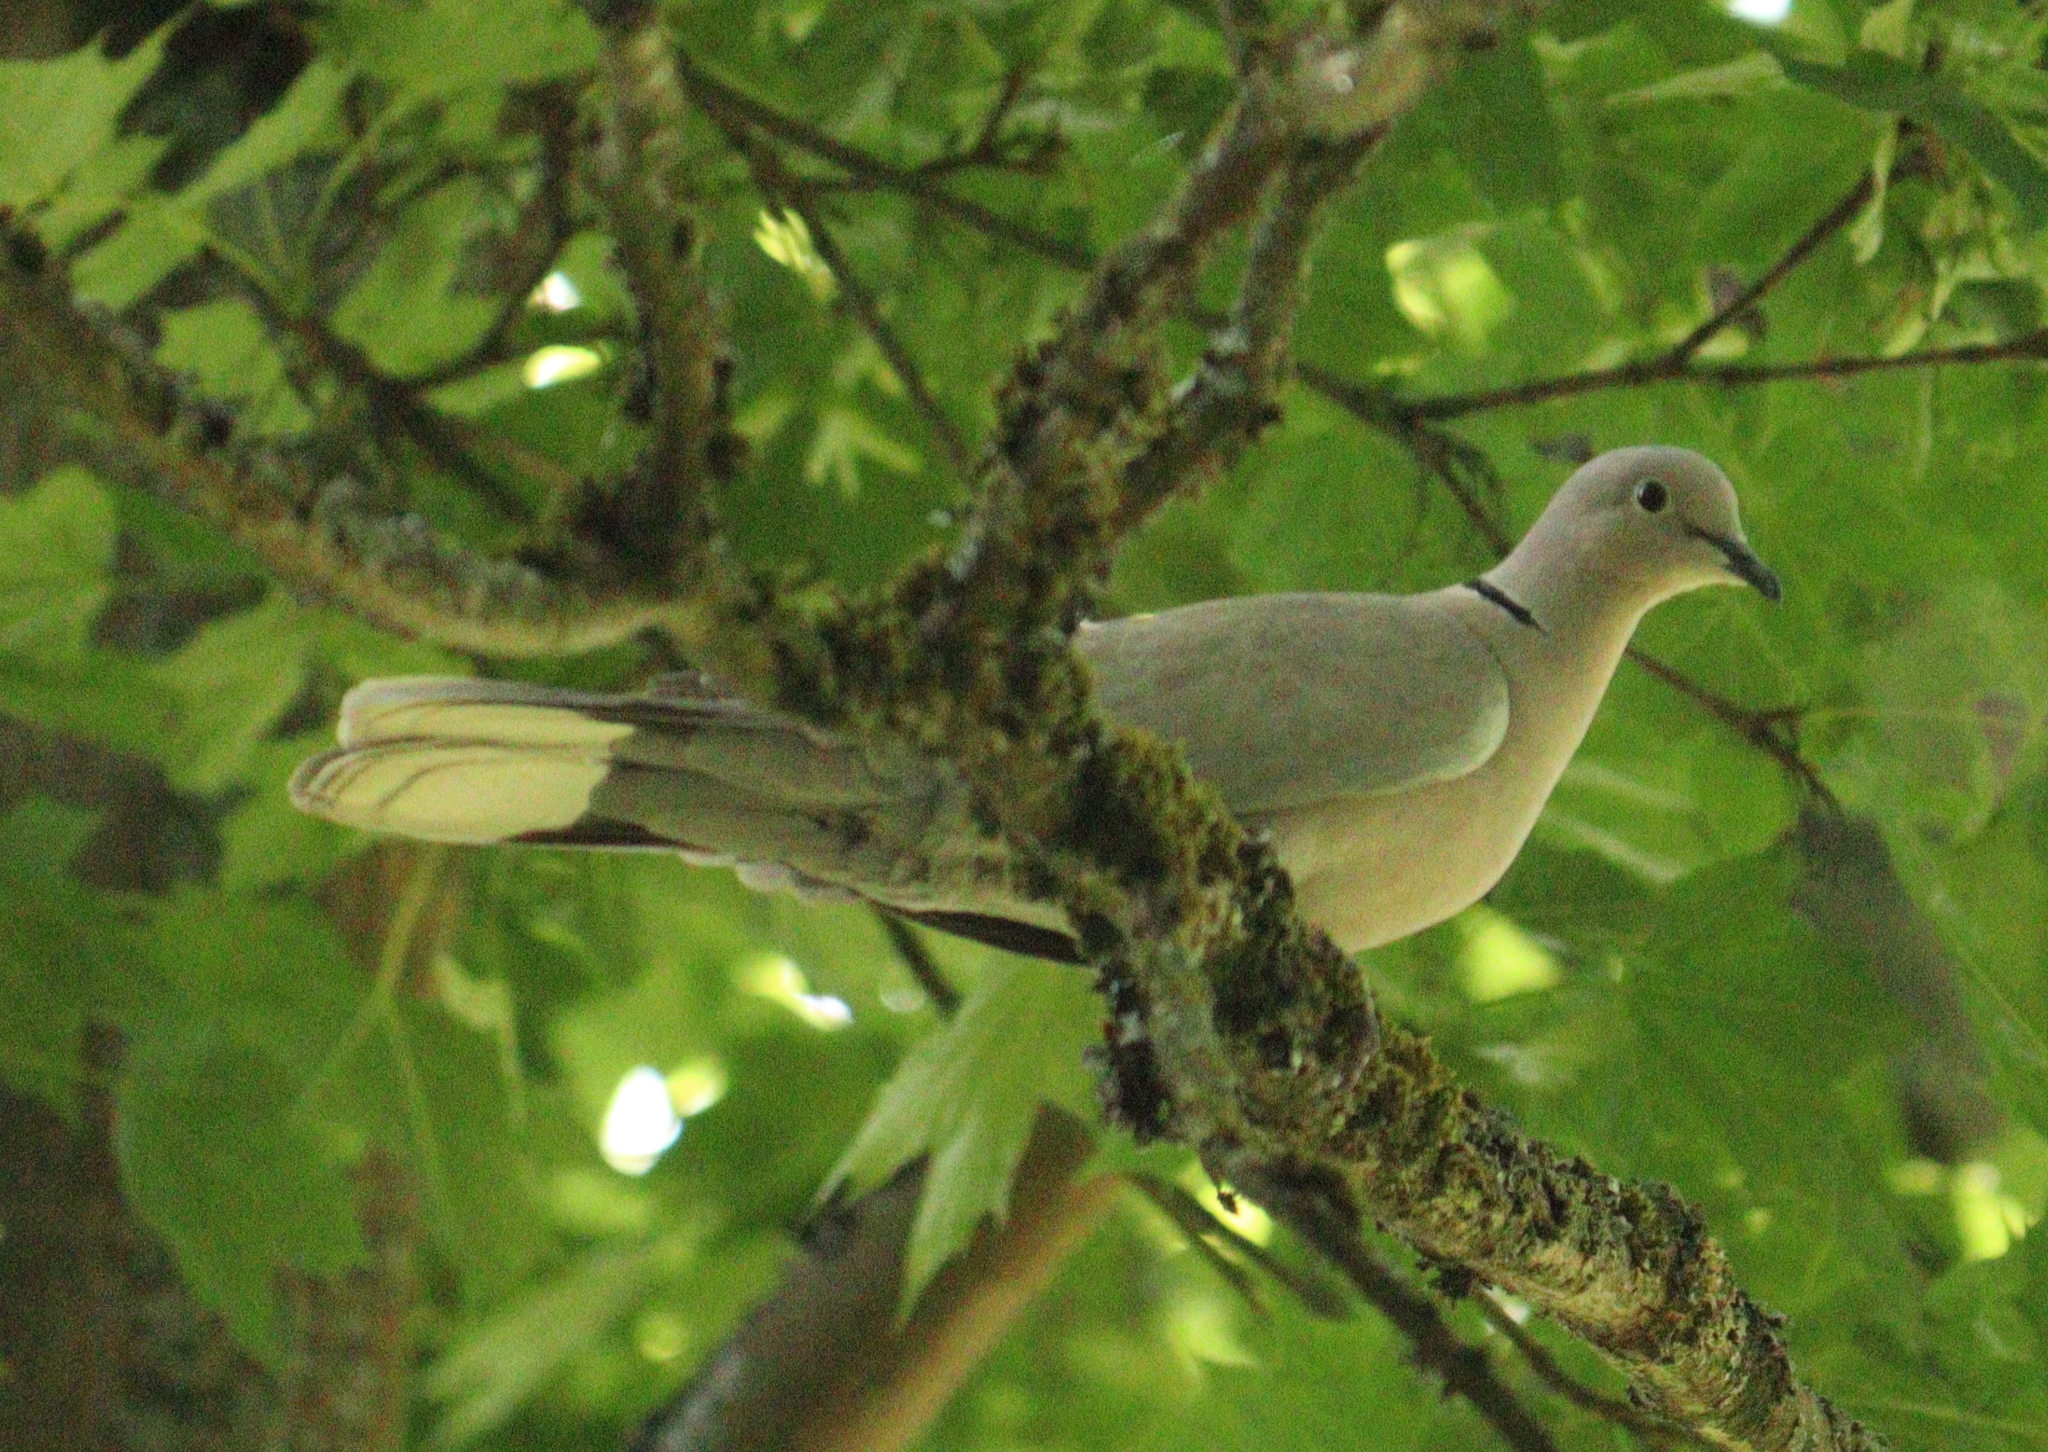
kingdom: Animalia
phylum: Chordata
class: Aves
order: Columbiformes
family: Columbidae
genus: Streptopelia
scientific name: Streptopelia decaocto
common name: Eurasian collared dove
